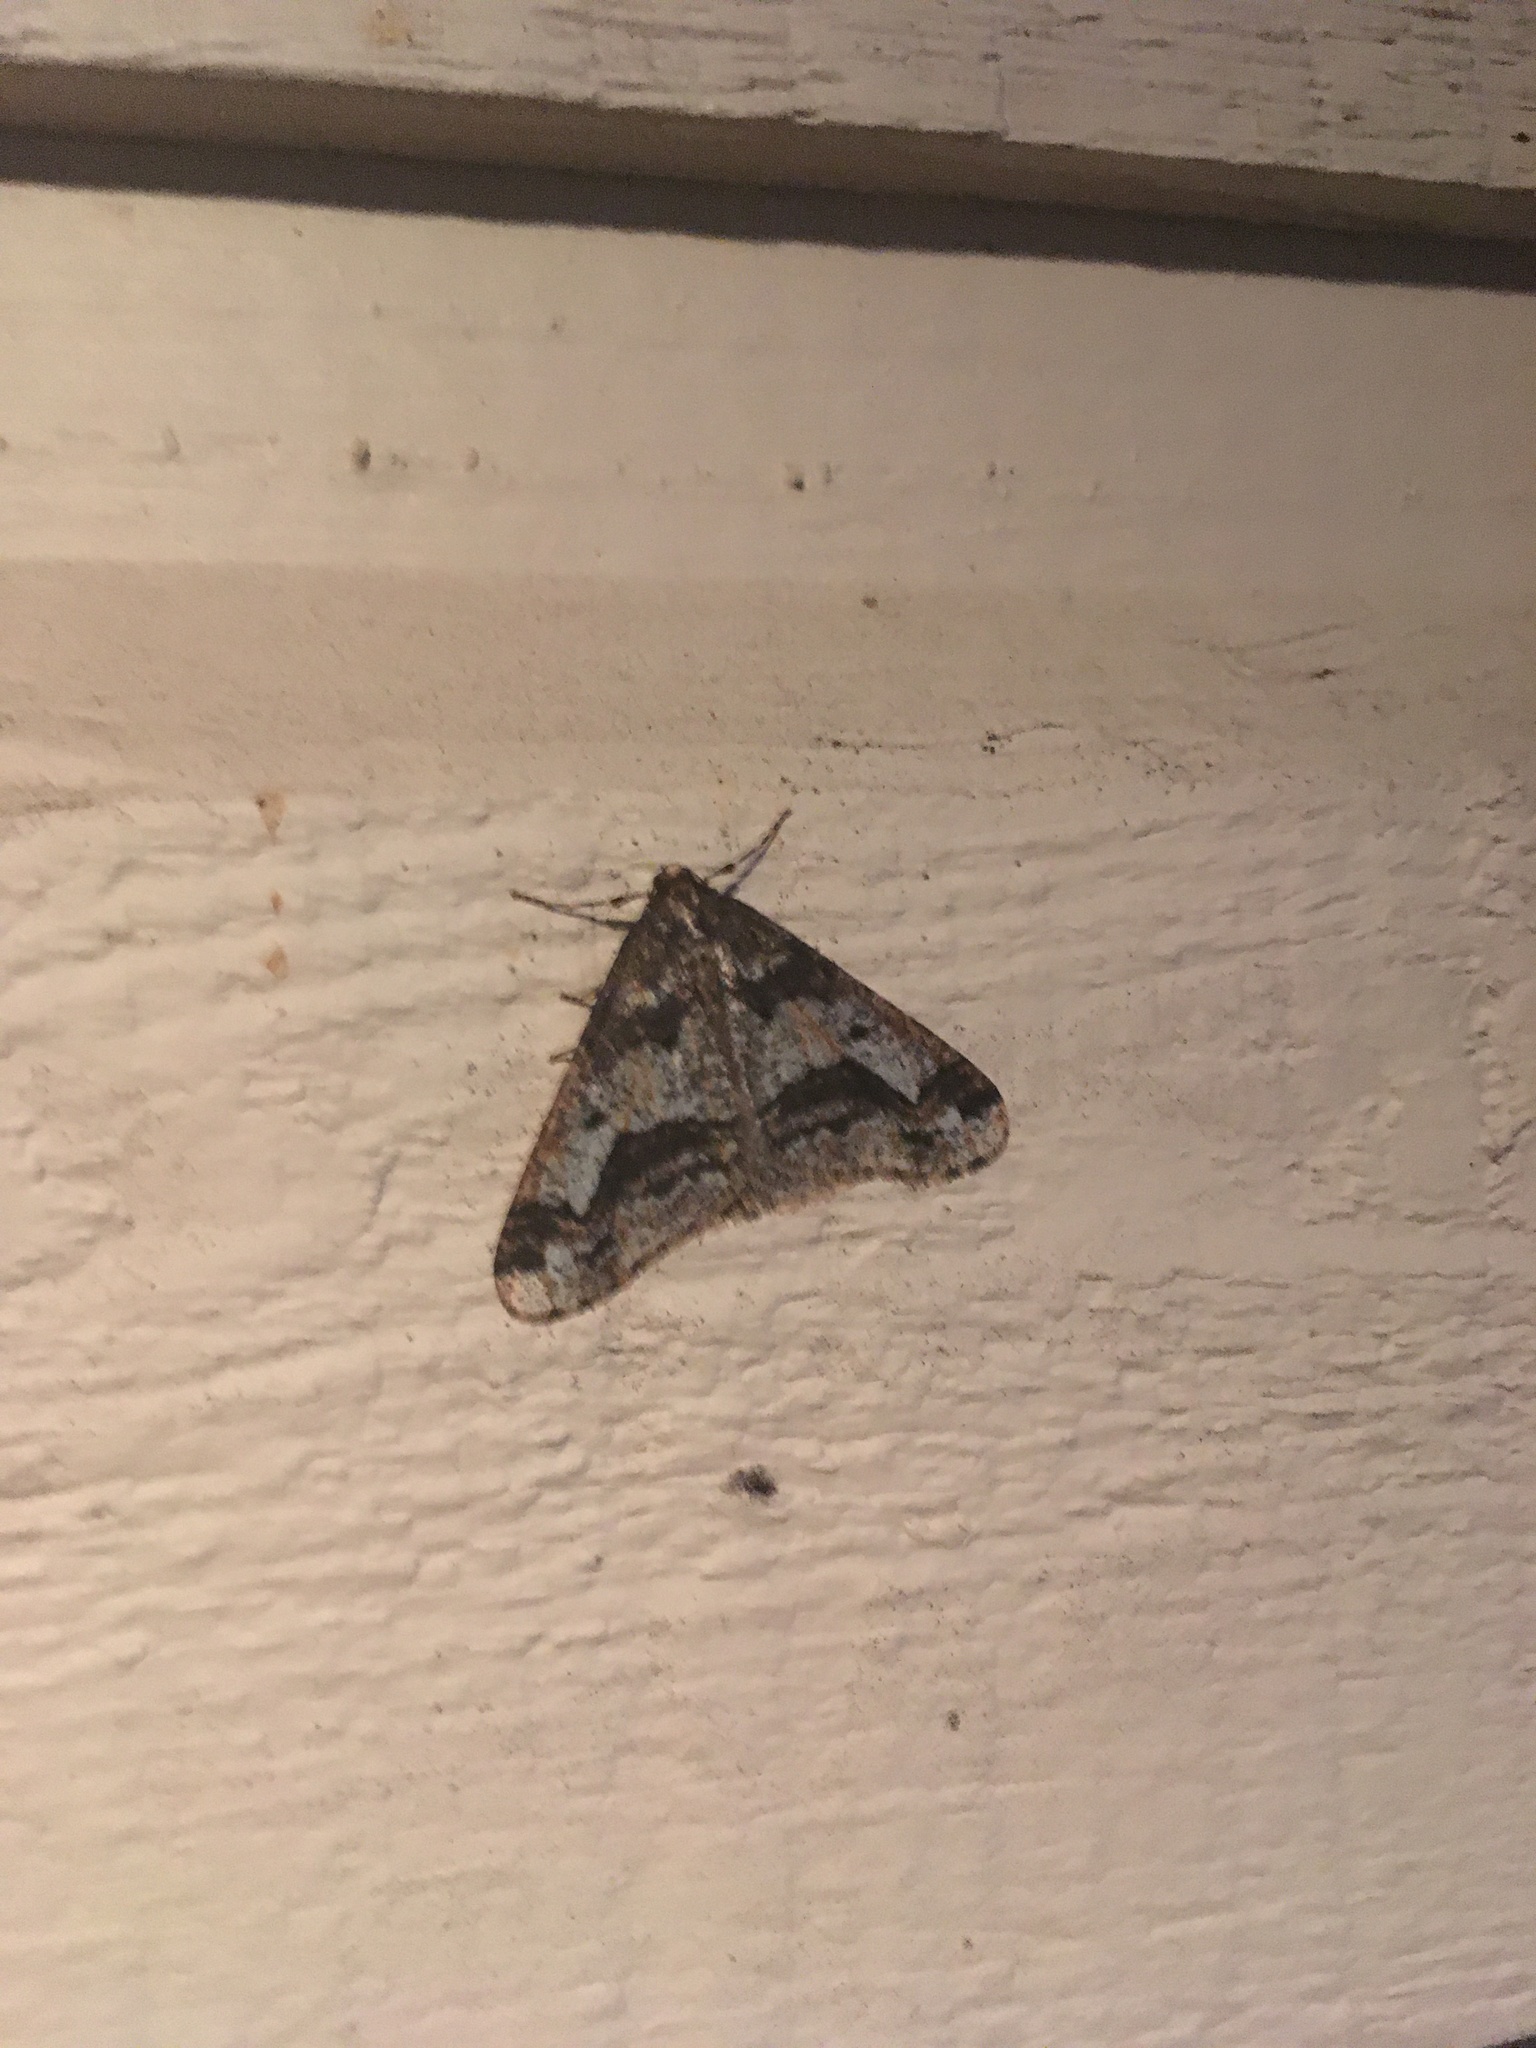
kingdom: Animalia
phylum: Arthropoda
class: Insecta
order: Lepidoptera
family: Geometridae
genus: Erannis
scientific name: Erannis vancouverensis
